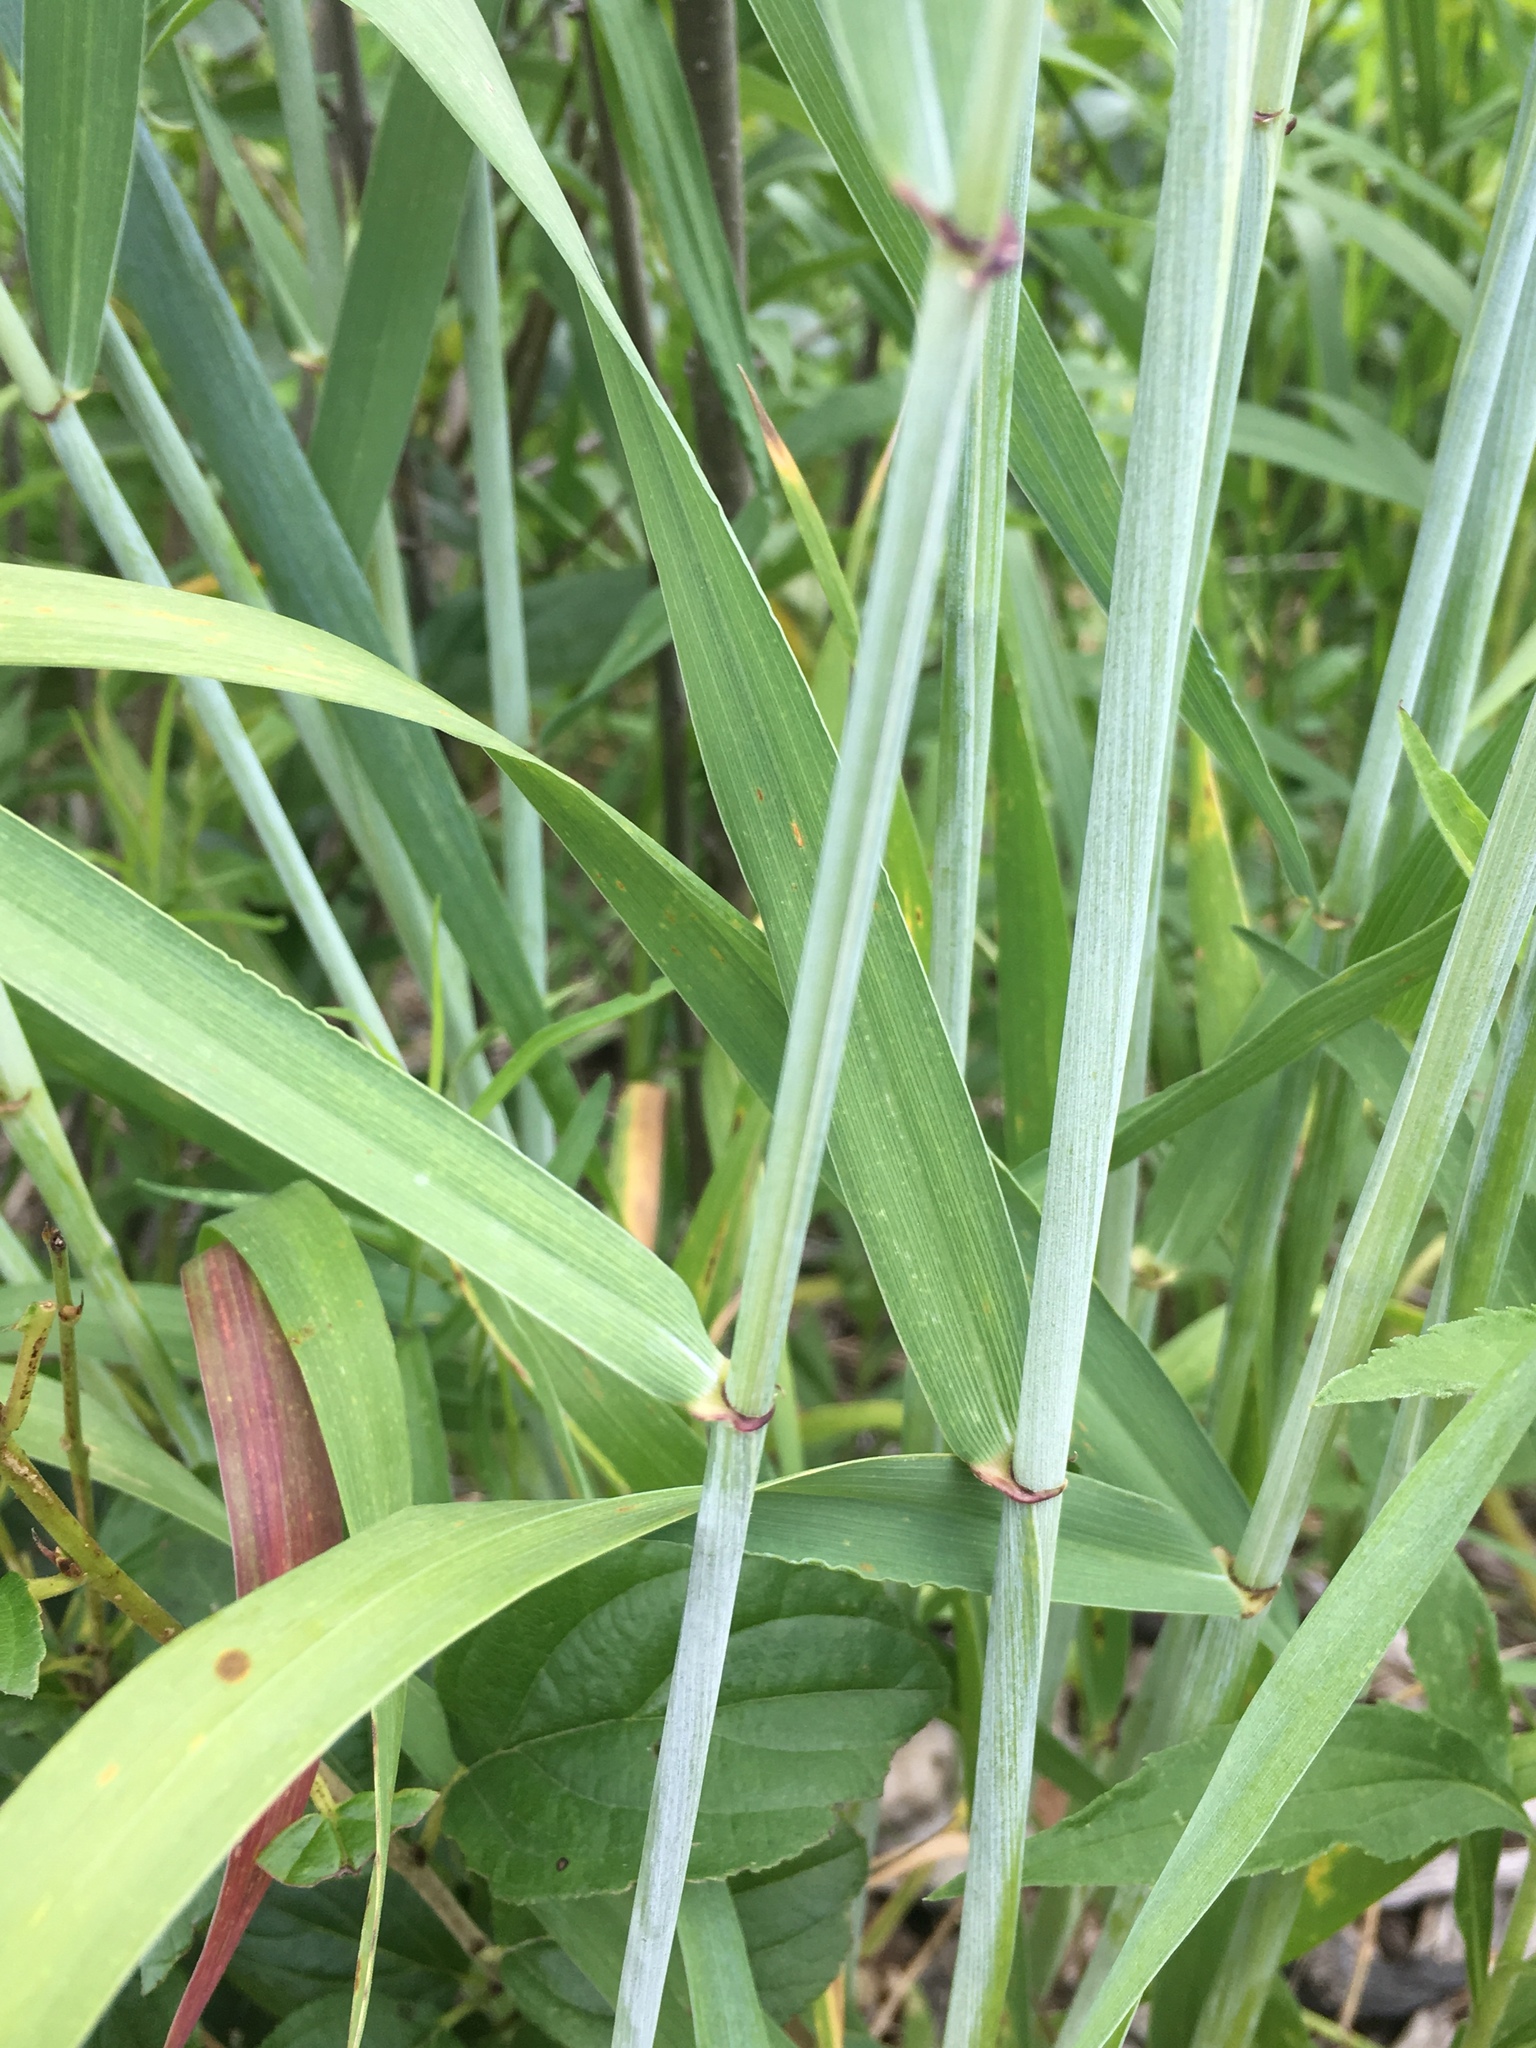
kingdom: Plantae
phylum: Tracheophyta
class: Liliopsida
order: Poales
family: Poaceae
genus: Elymus
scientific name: Elymus canadensis
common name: Canada wild rye
